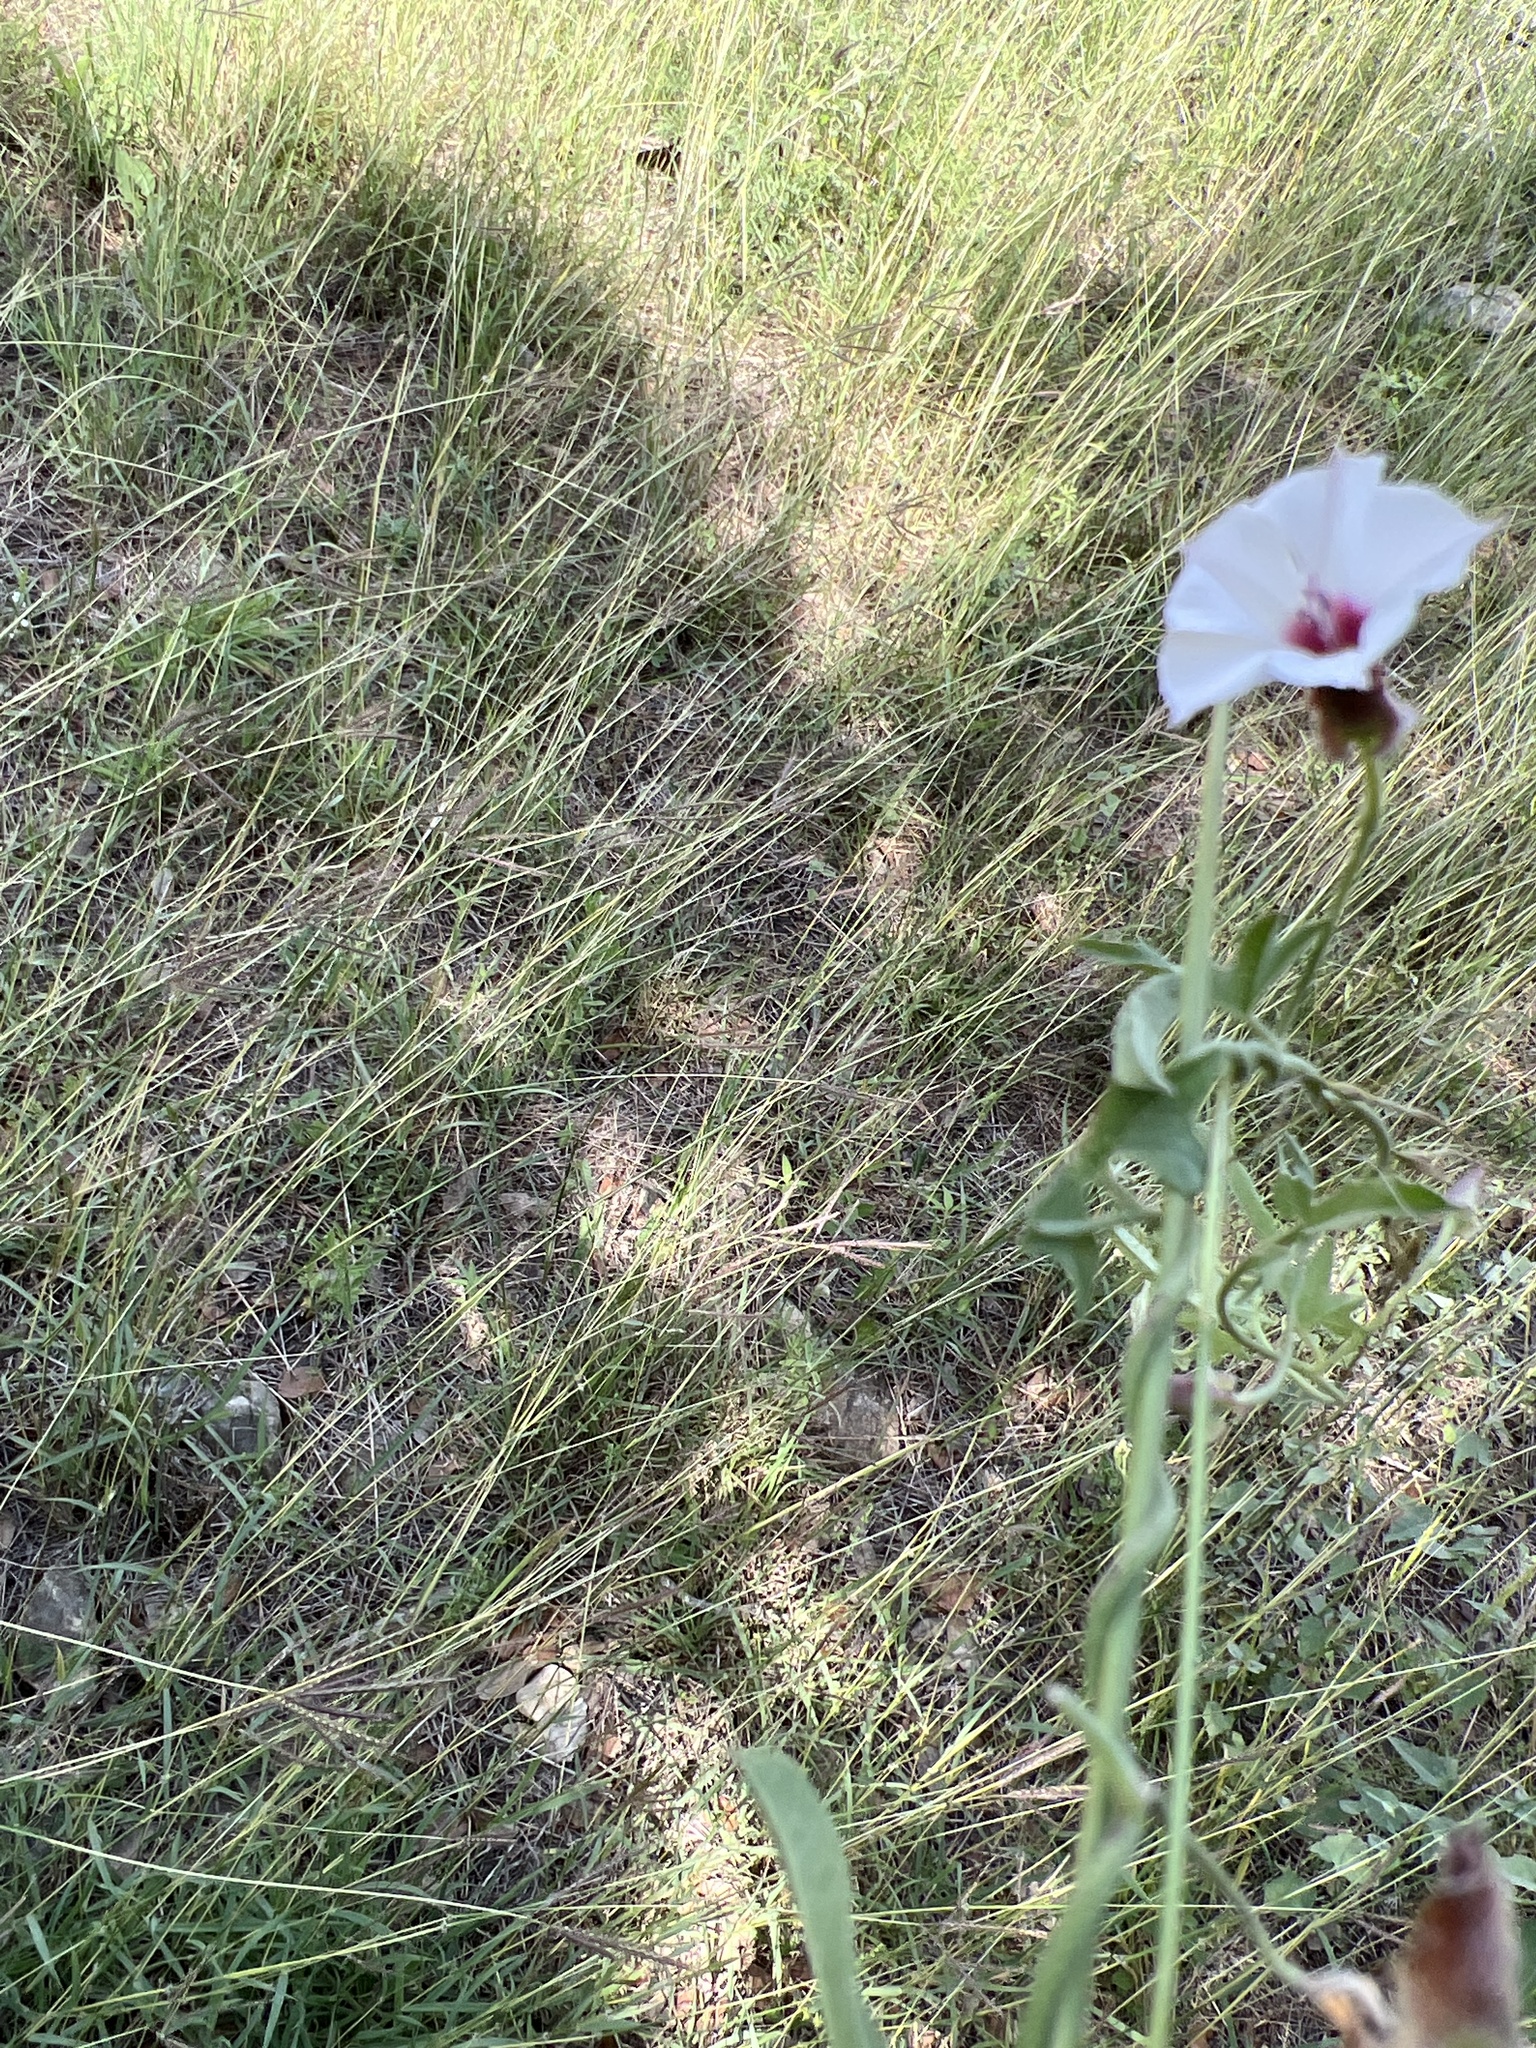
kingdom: Plantae
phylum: Tracheophyta
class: Magnoliopsida
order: Solanales
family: Convolvulaceae
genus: Convolvulus
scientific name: Convolvulus equitans
